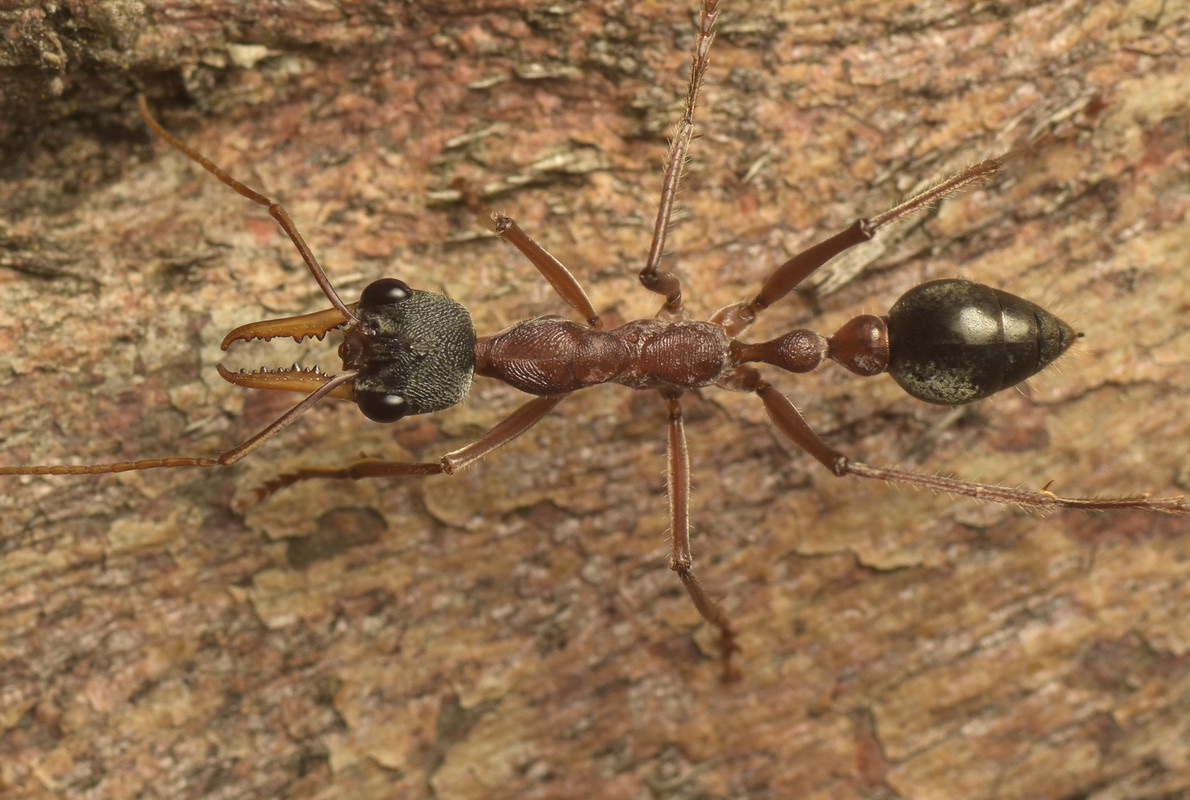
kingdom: Animalia
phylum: Arthropoda
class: Insecta
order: Hymenoptera
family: Formicidae
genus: Myrmecia
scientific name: Myrmecia nigriceps
